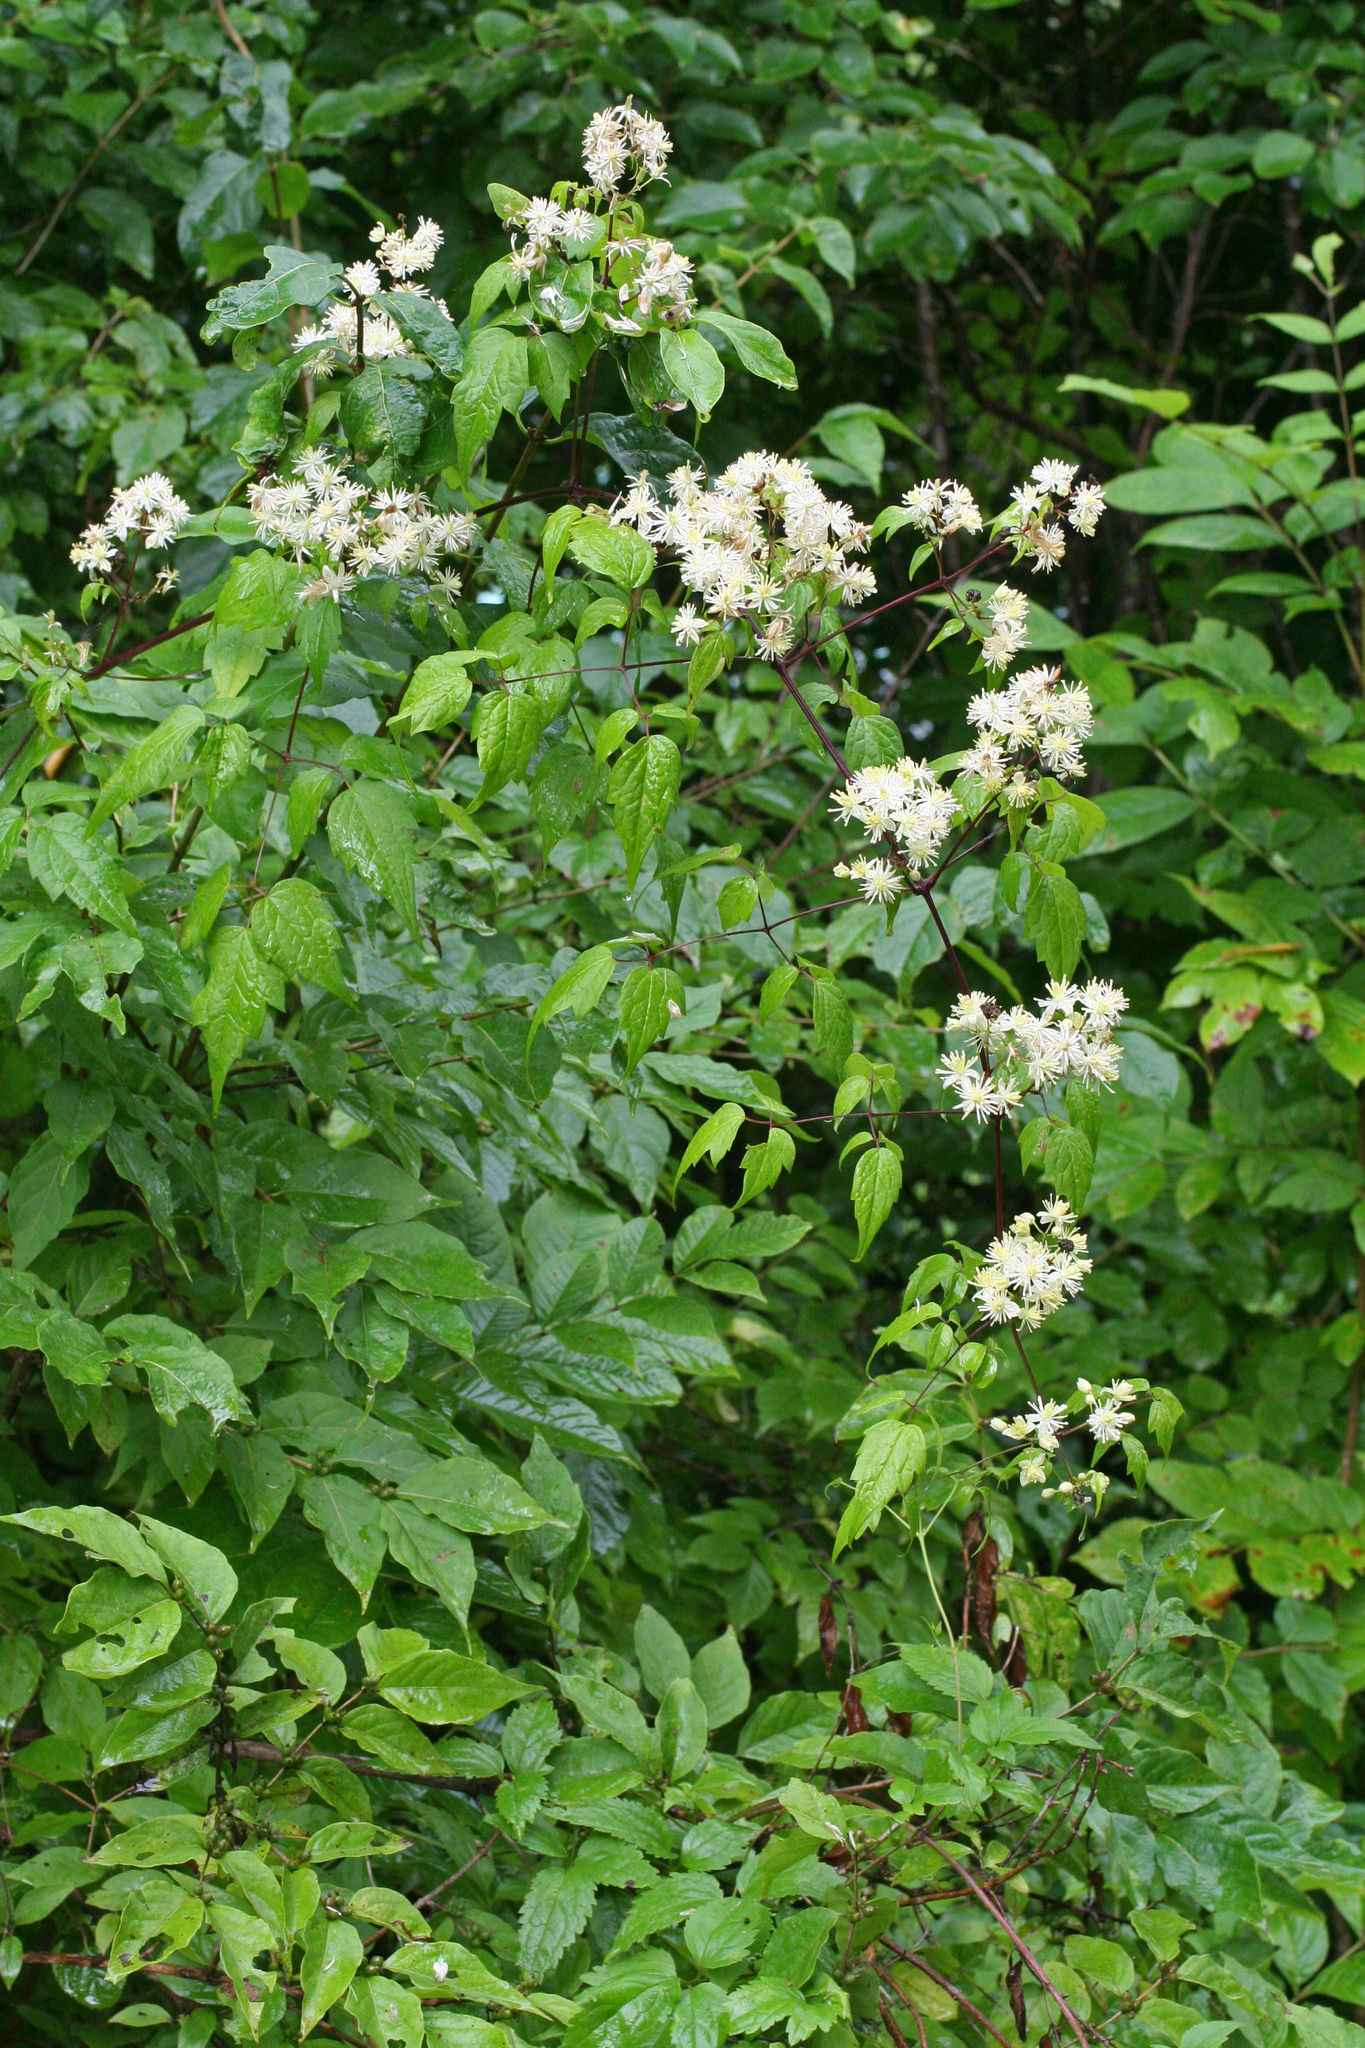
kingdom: Plantae
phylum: Tracheophyta
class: Magnoliopsida
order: Ranunculales
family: Ranunculaceae
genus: Clematis
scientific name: Clematis brevicaudata
